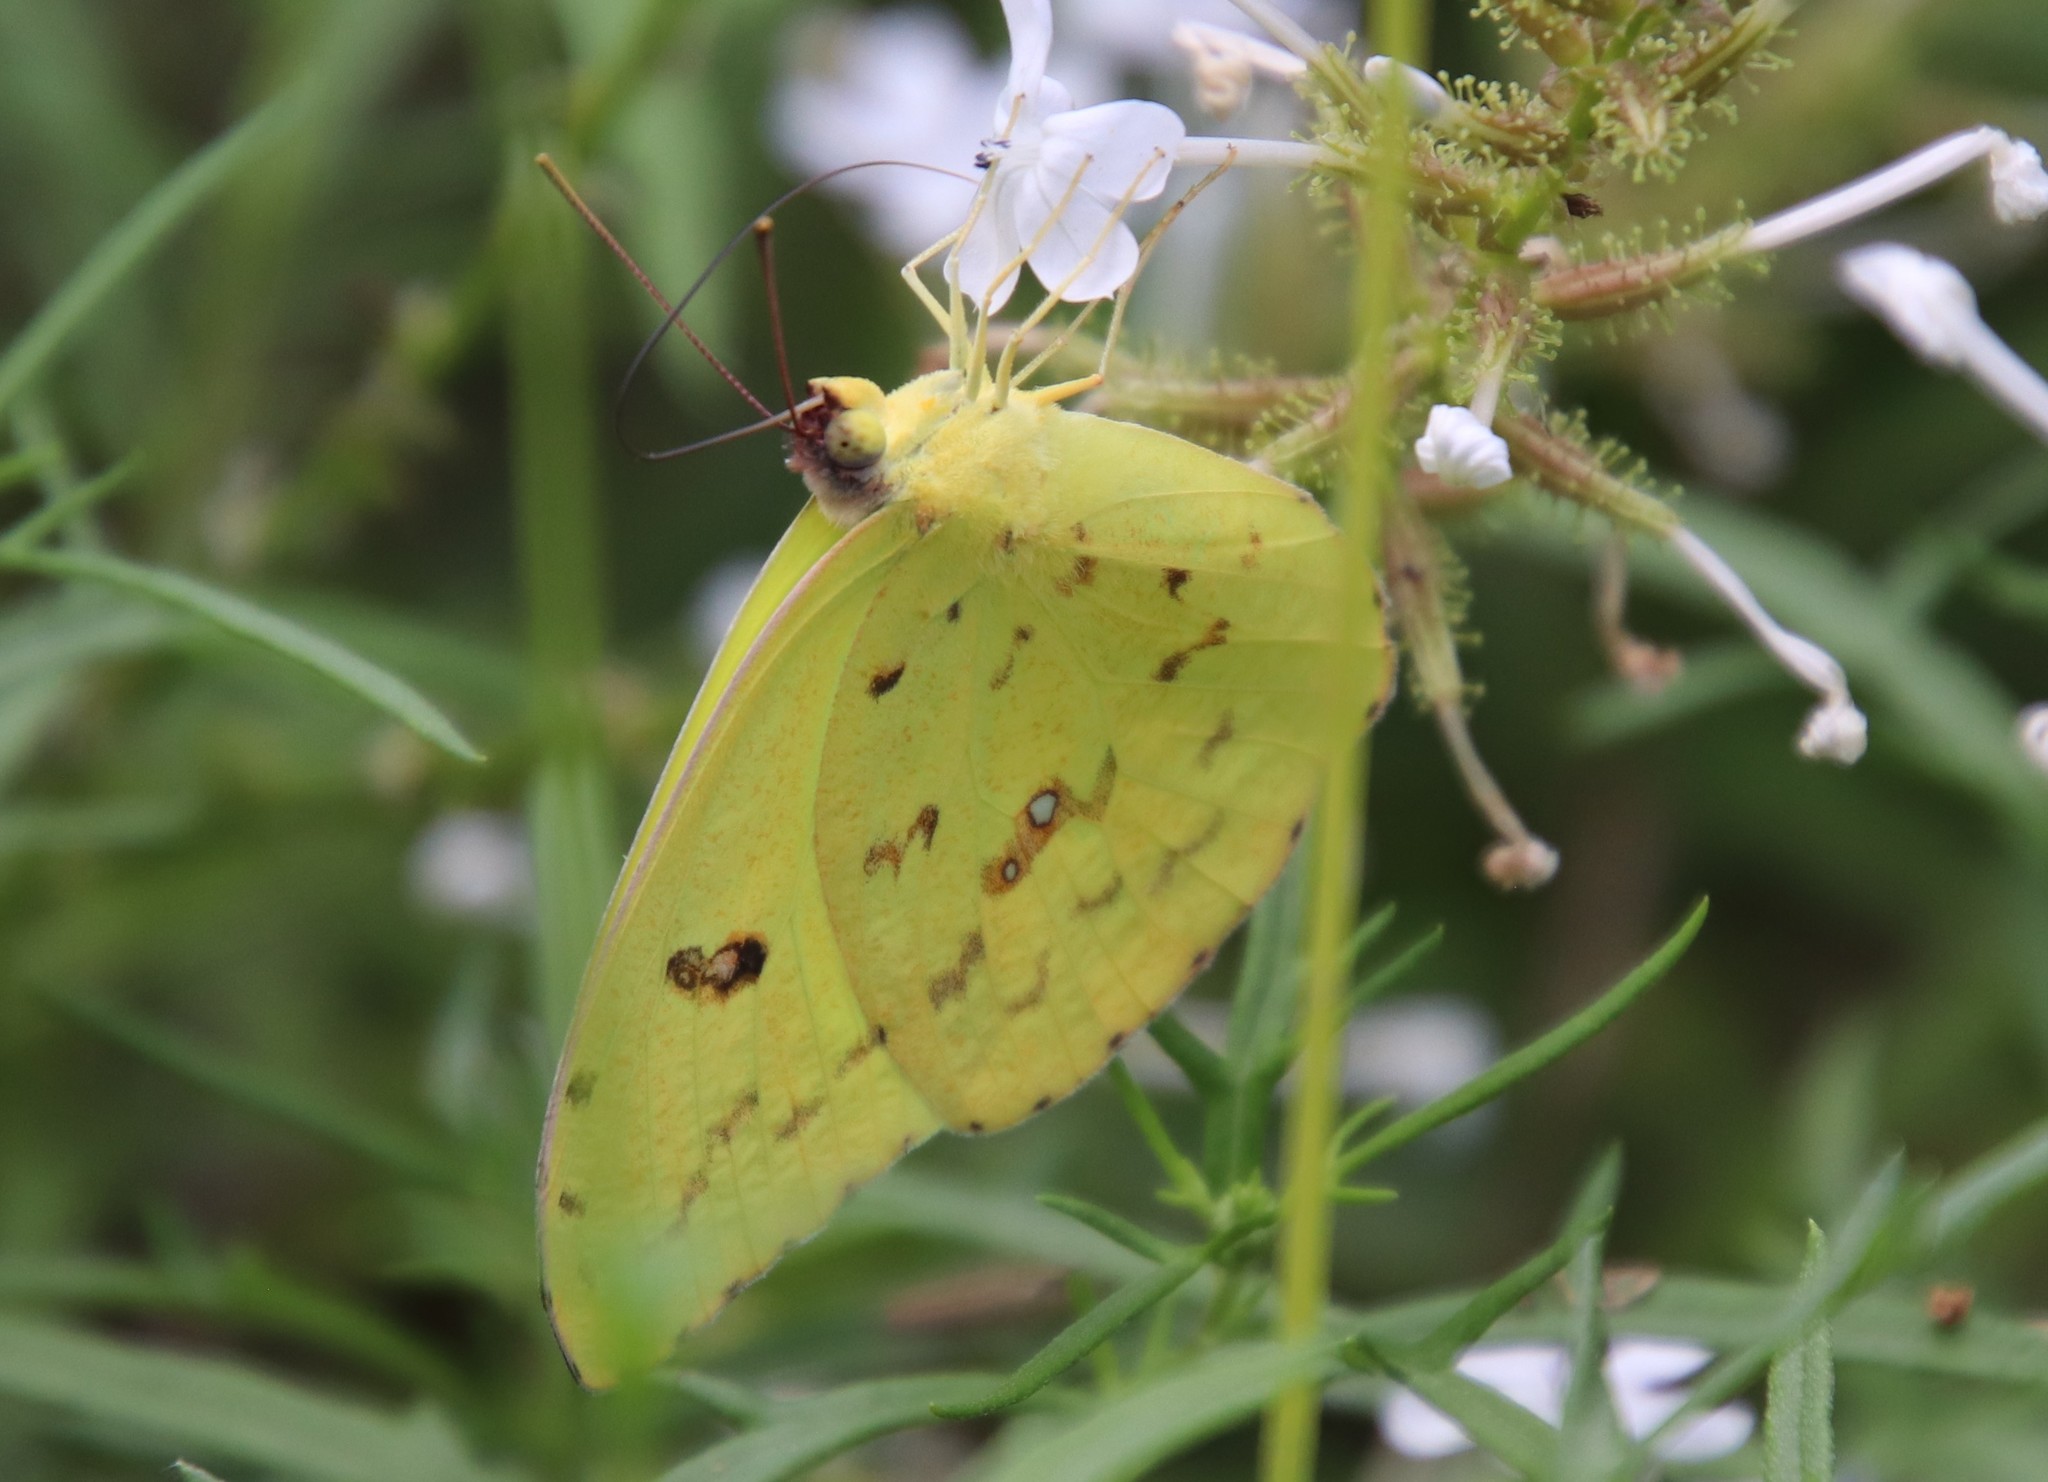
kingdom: Animalia
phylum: Arthropoda
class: Insecta
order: Lepidoptera
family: Pieridae
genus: Phoebis
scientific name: Phoebis sennae
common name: Cloudless sulphur
